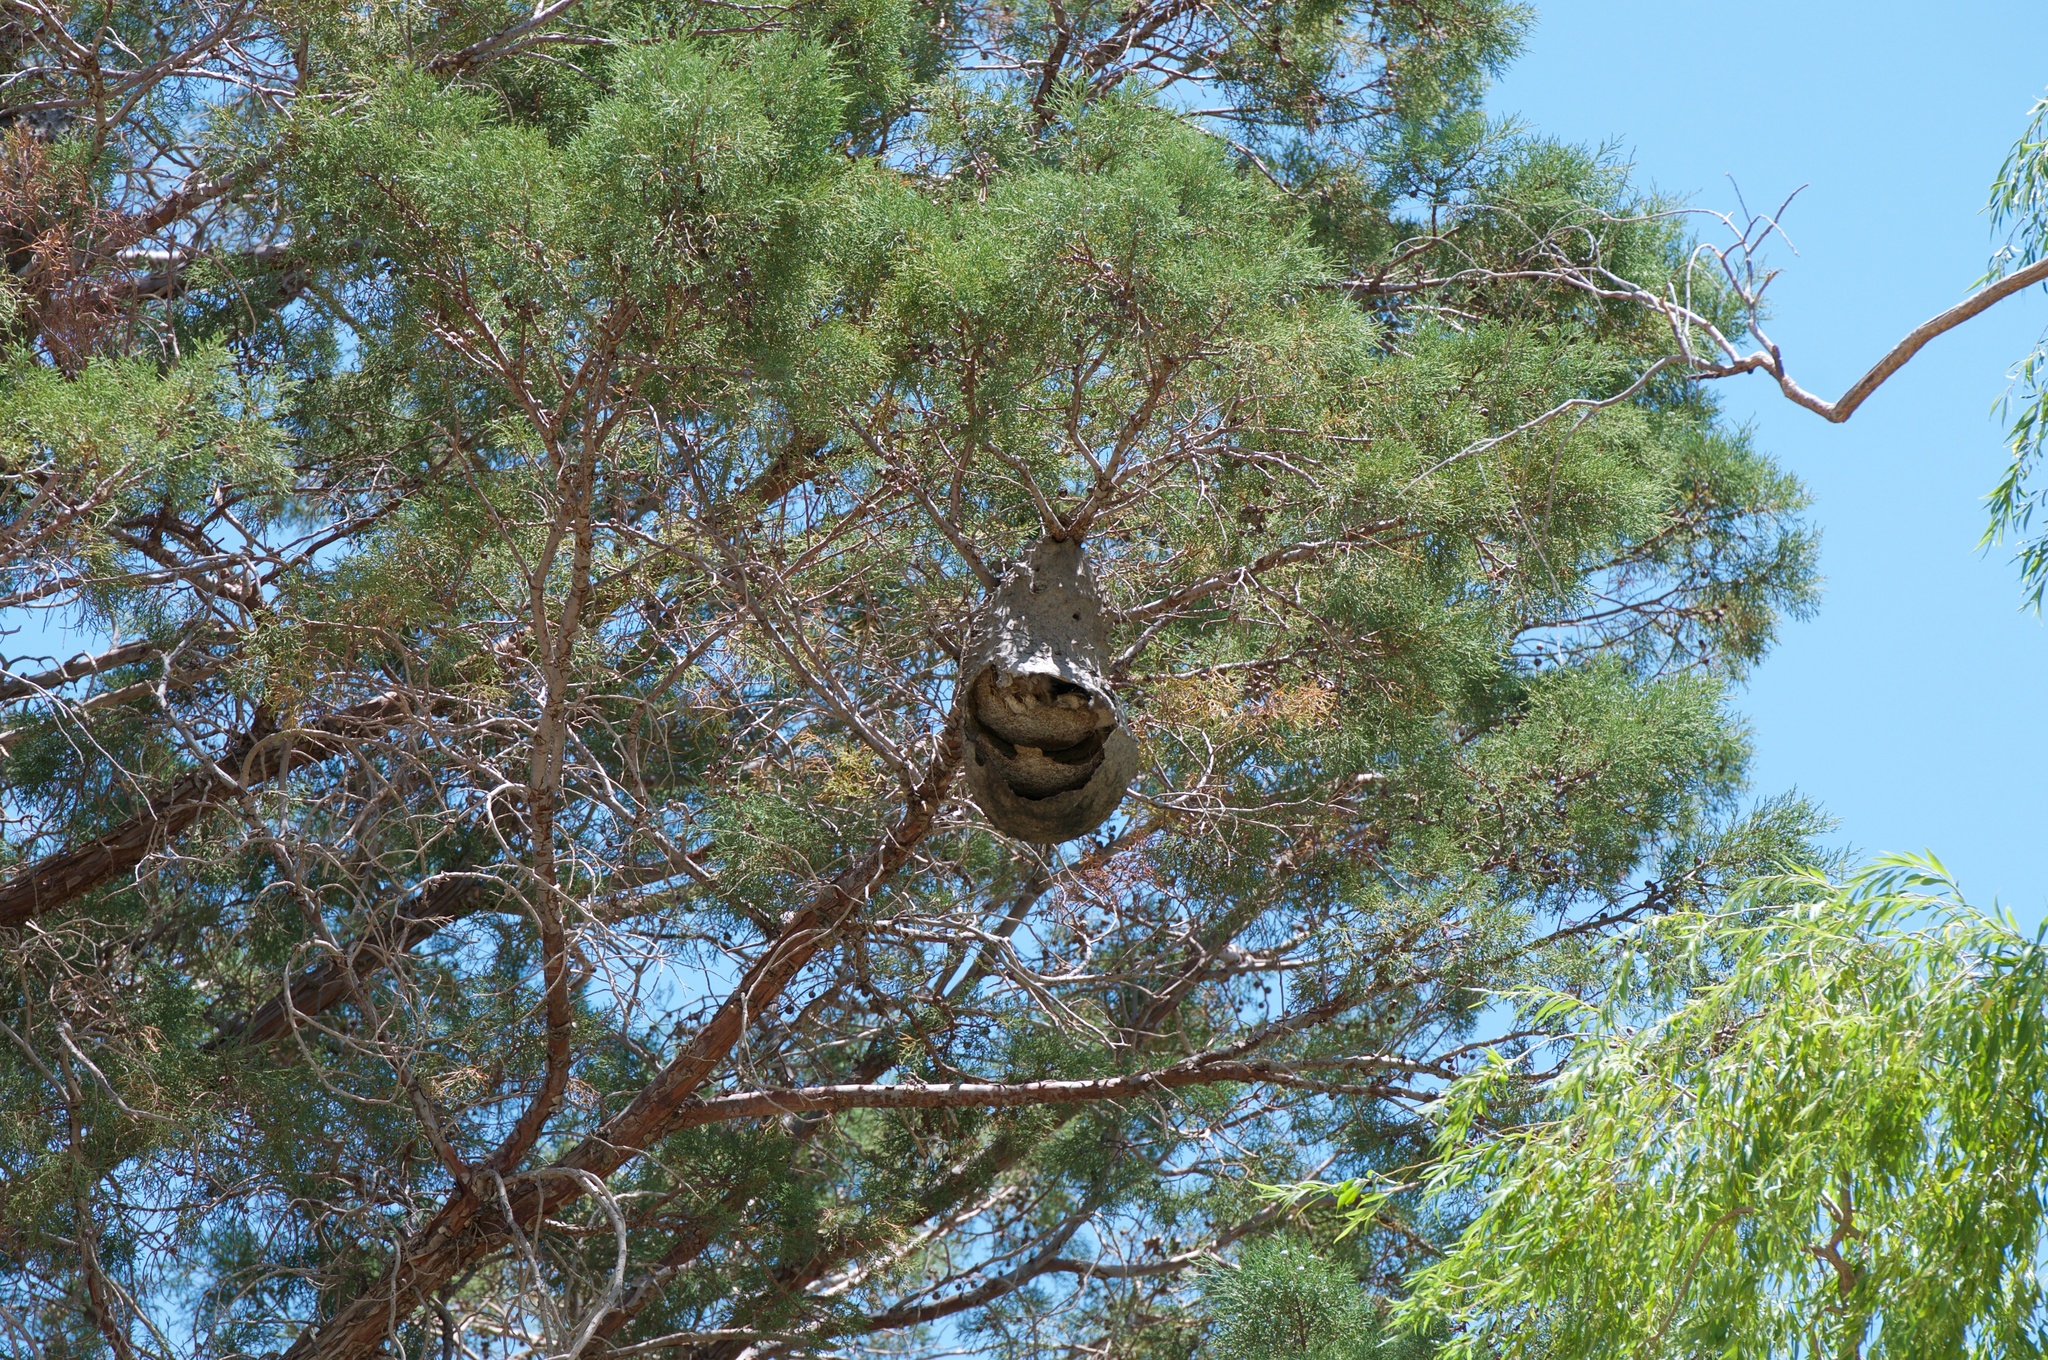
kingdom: Animalia
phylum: Arthropoda
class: Insecta
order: Hymenoptera
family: Eumenidae
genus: Polybia
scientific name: Polybia scutellaris
